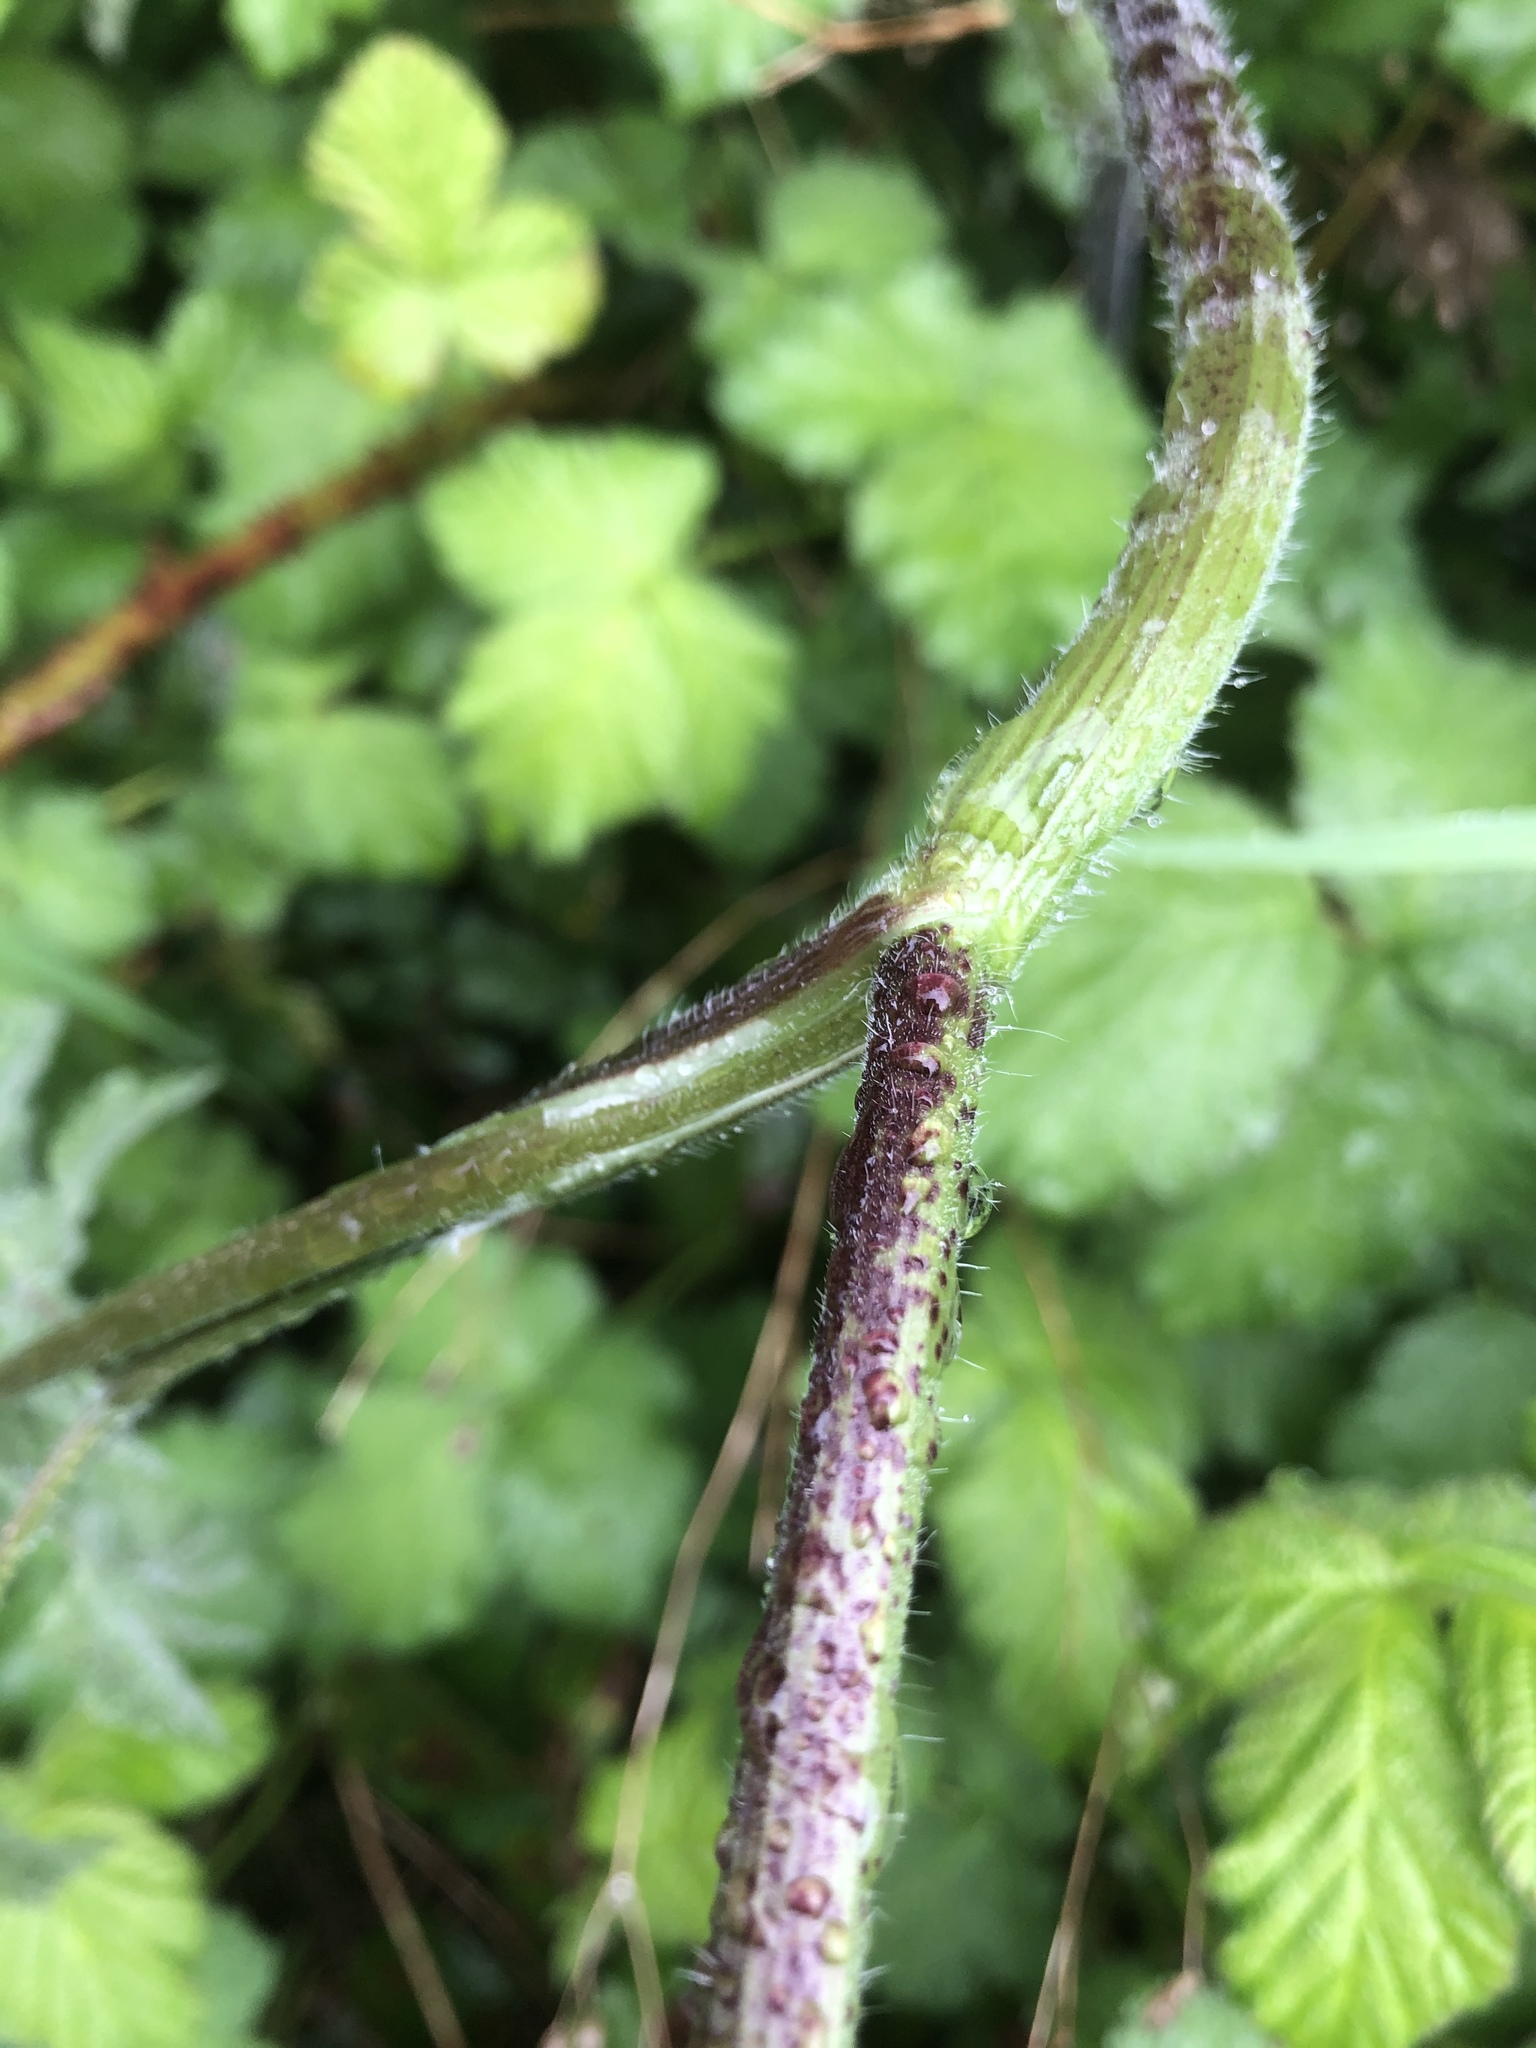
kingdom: Plantae
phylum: Tracheophyta
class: Magnoliopsida
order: Apiales
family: Apiaceae
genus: Chaerophyllum
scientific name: Chaerophyllum temulum
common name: Rough chervil
